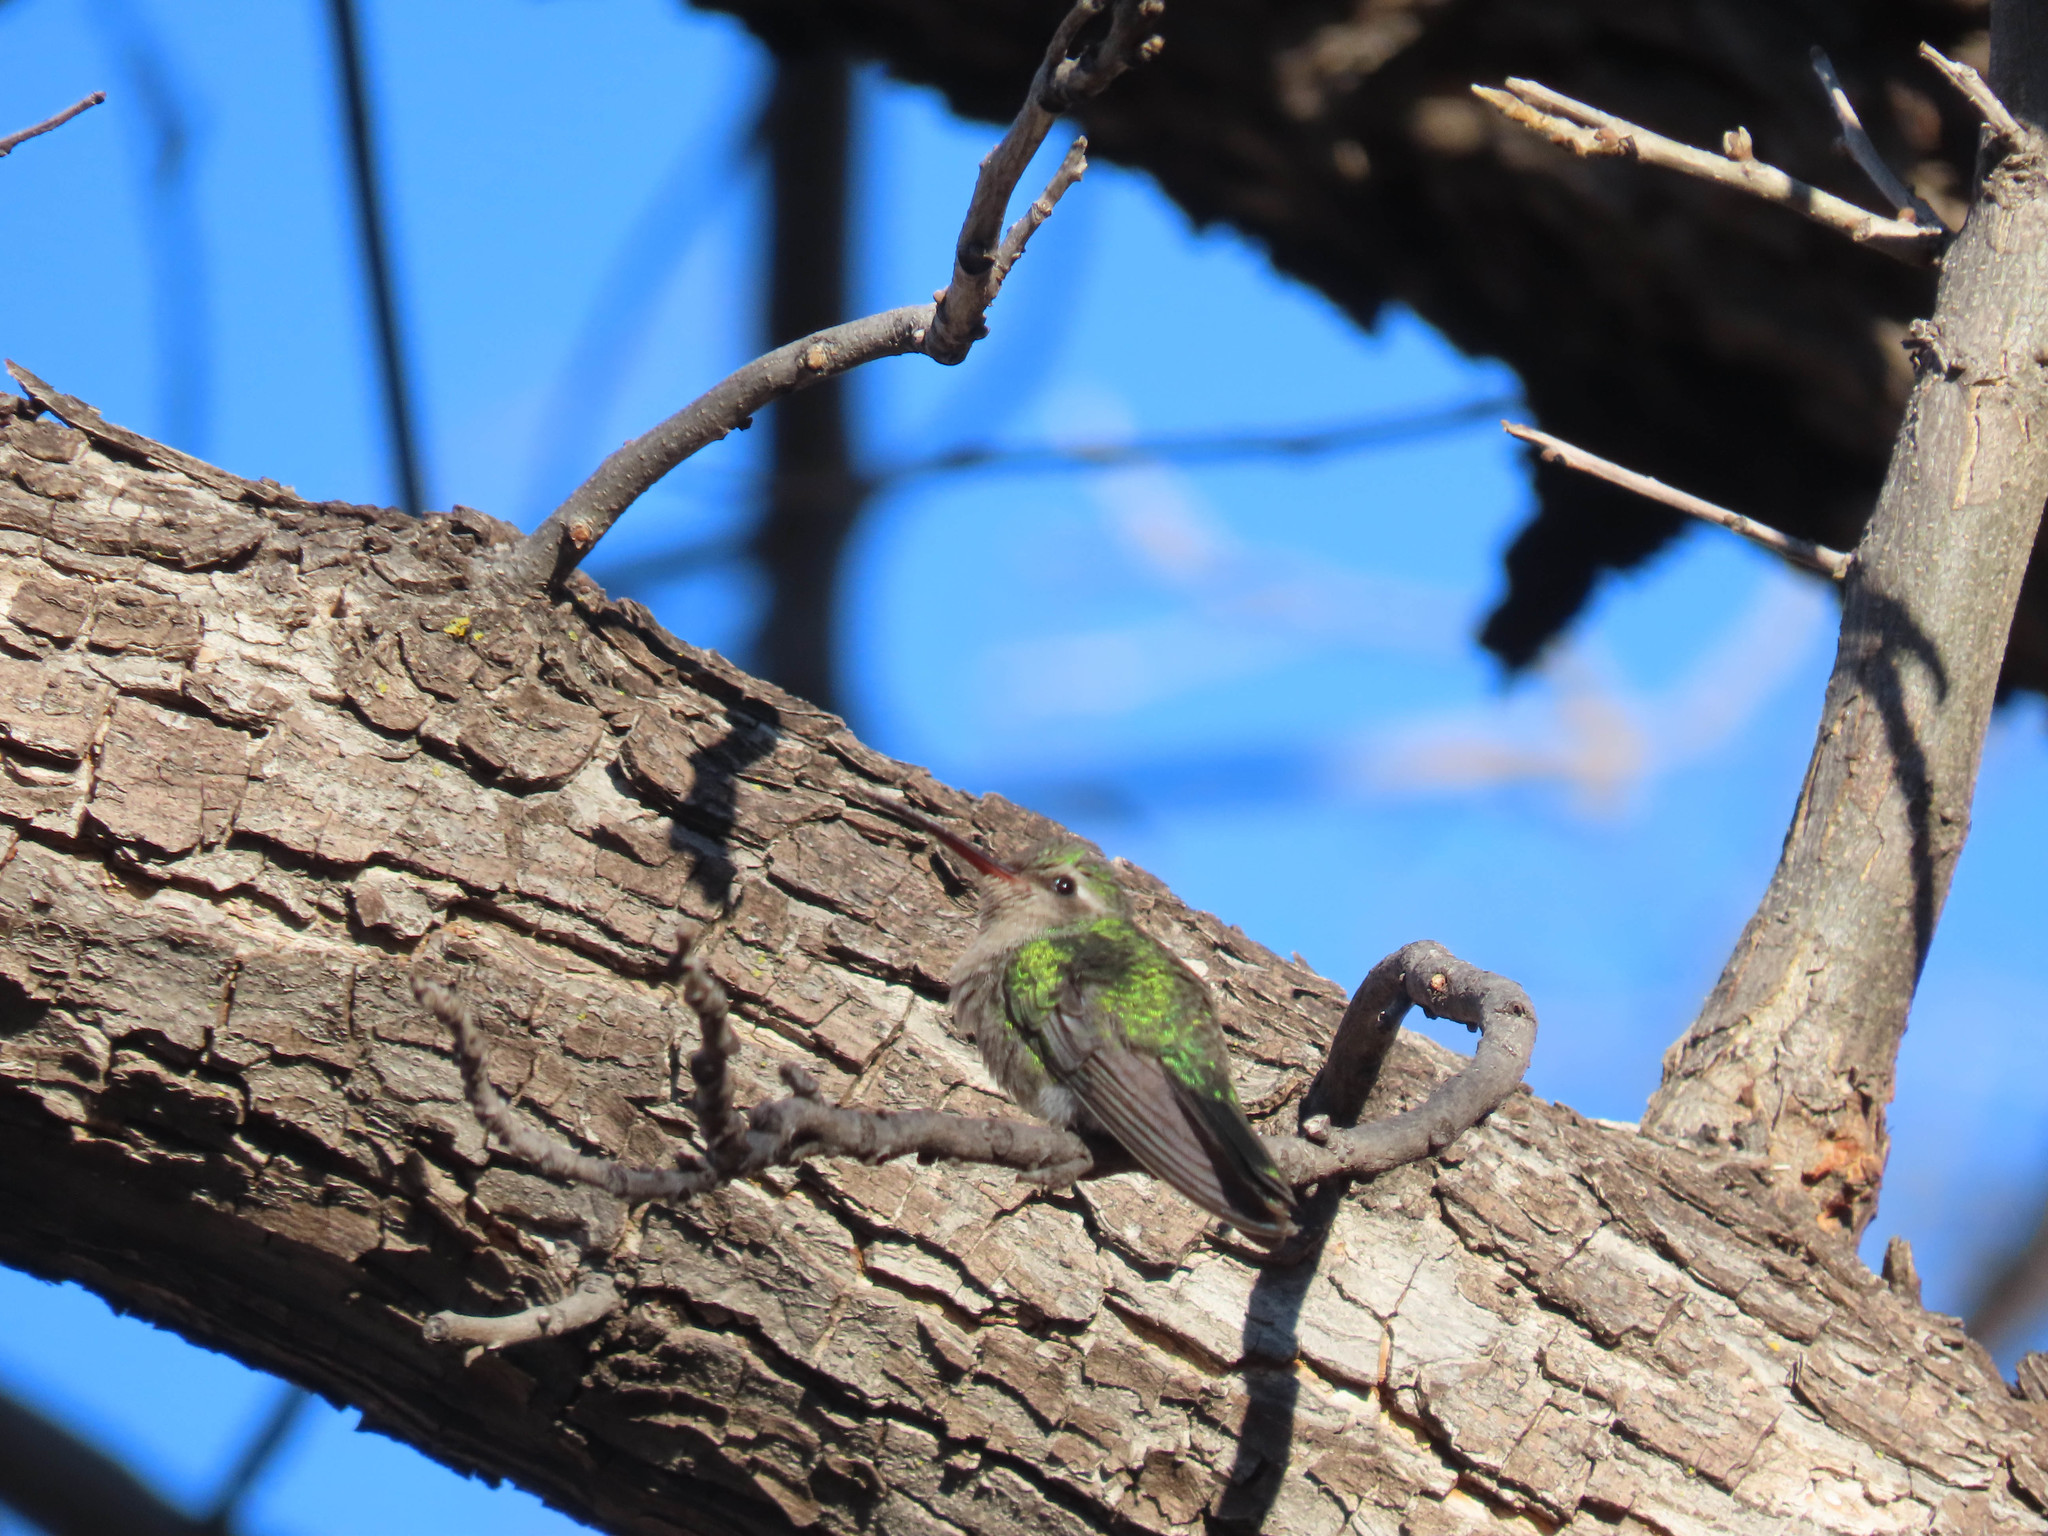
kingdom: Animalia
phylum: Chordata
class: Aves
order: Apodiformes
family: Trochilidae
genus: Cynanthus
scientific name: Cynanthus latirostris
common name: Broad-billed hummingbird
